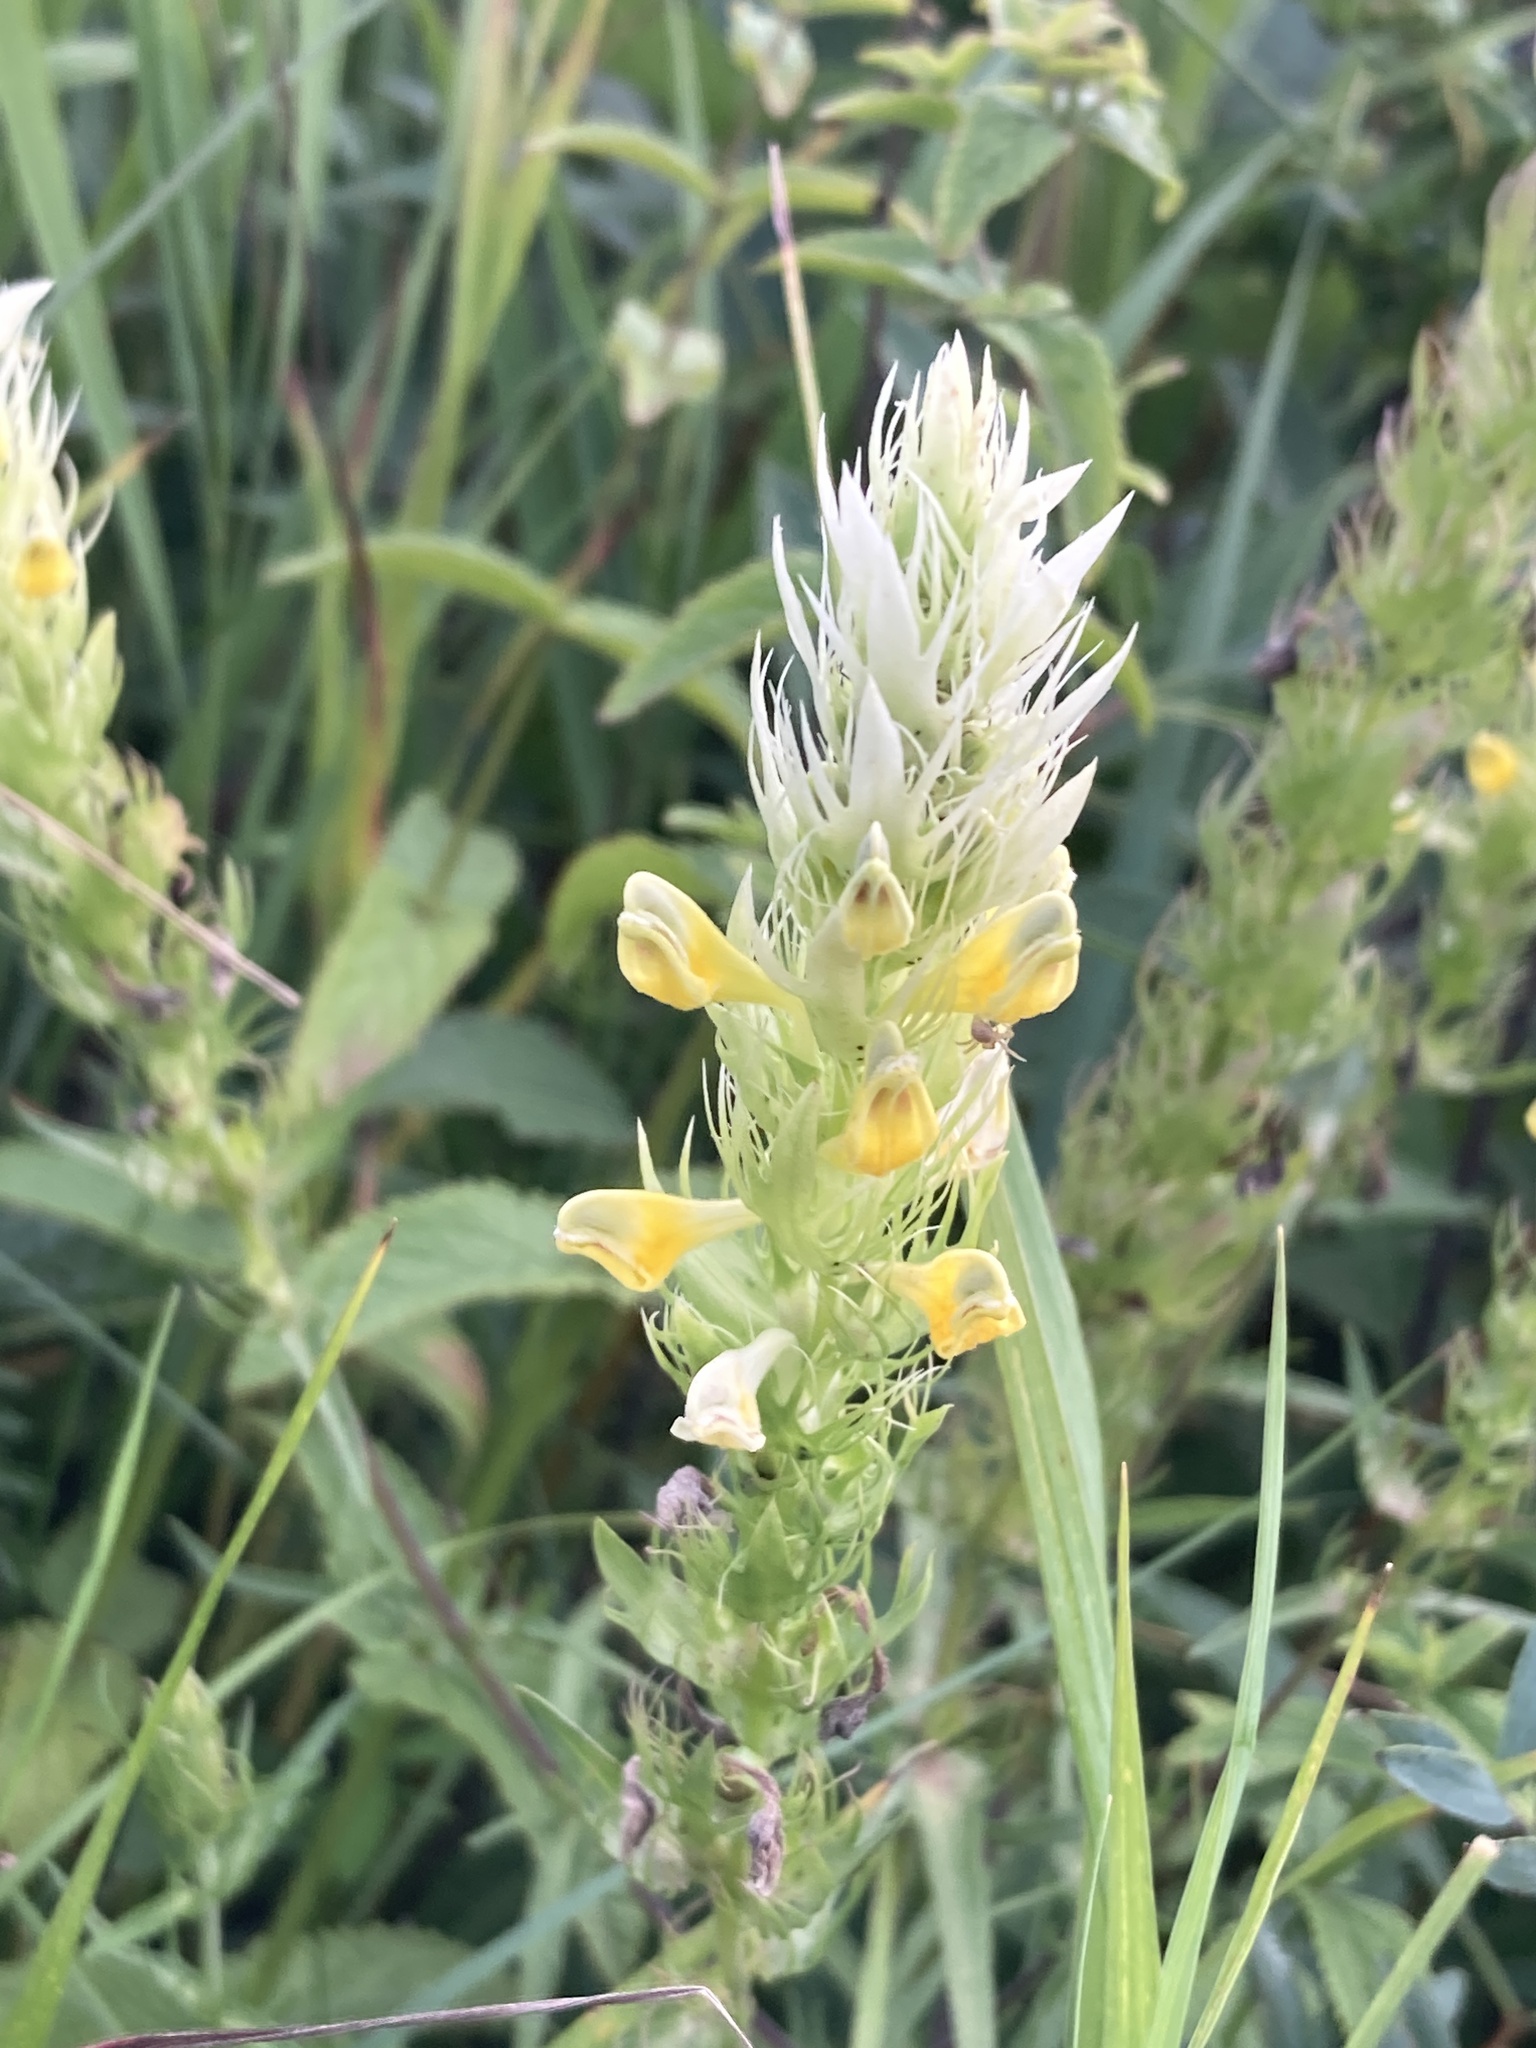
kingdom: Plantae
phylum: Tracheophyta
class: Magnoliopsida
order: Lamiales
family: Orobanchaceae
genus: Melampyrum
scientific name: Melampyrum arvense
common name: Field cow-wheat
